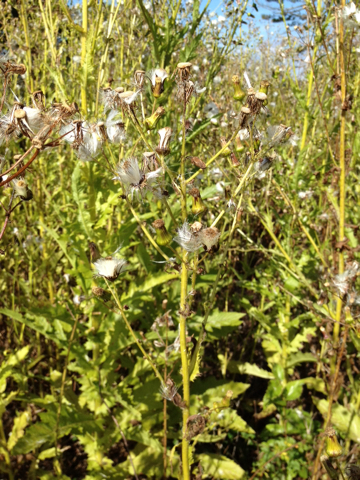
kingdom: Plantae
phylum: Tracheophyta
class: Magnoliopsida
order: Asterales
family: Asteraceae
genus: Erechtites
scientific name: Erechtites hieraciifolius
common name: American burnweed
